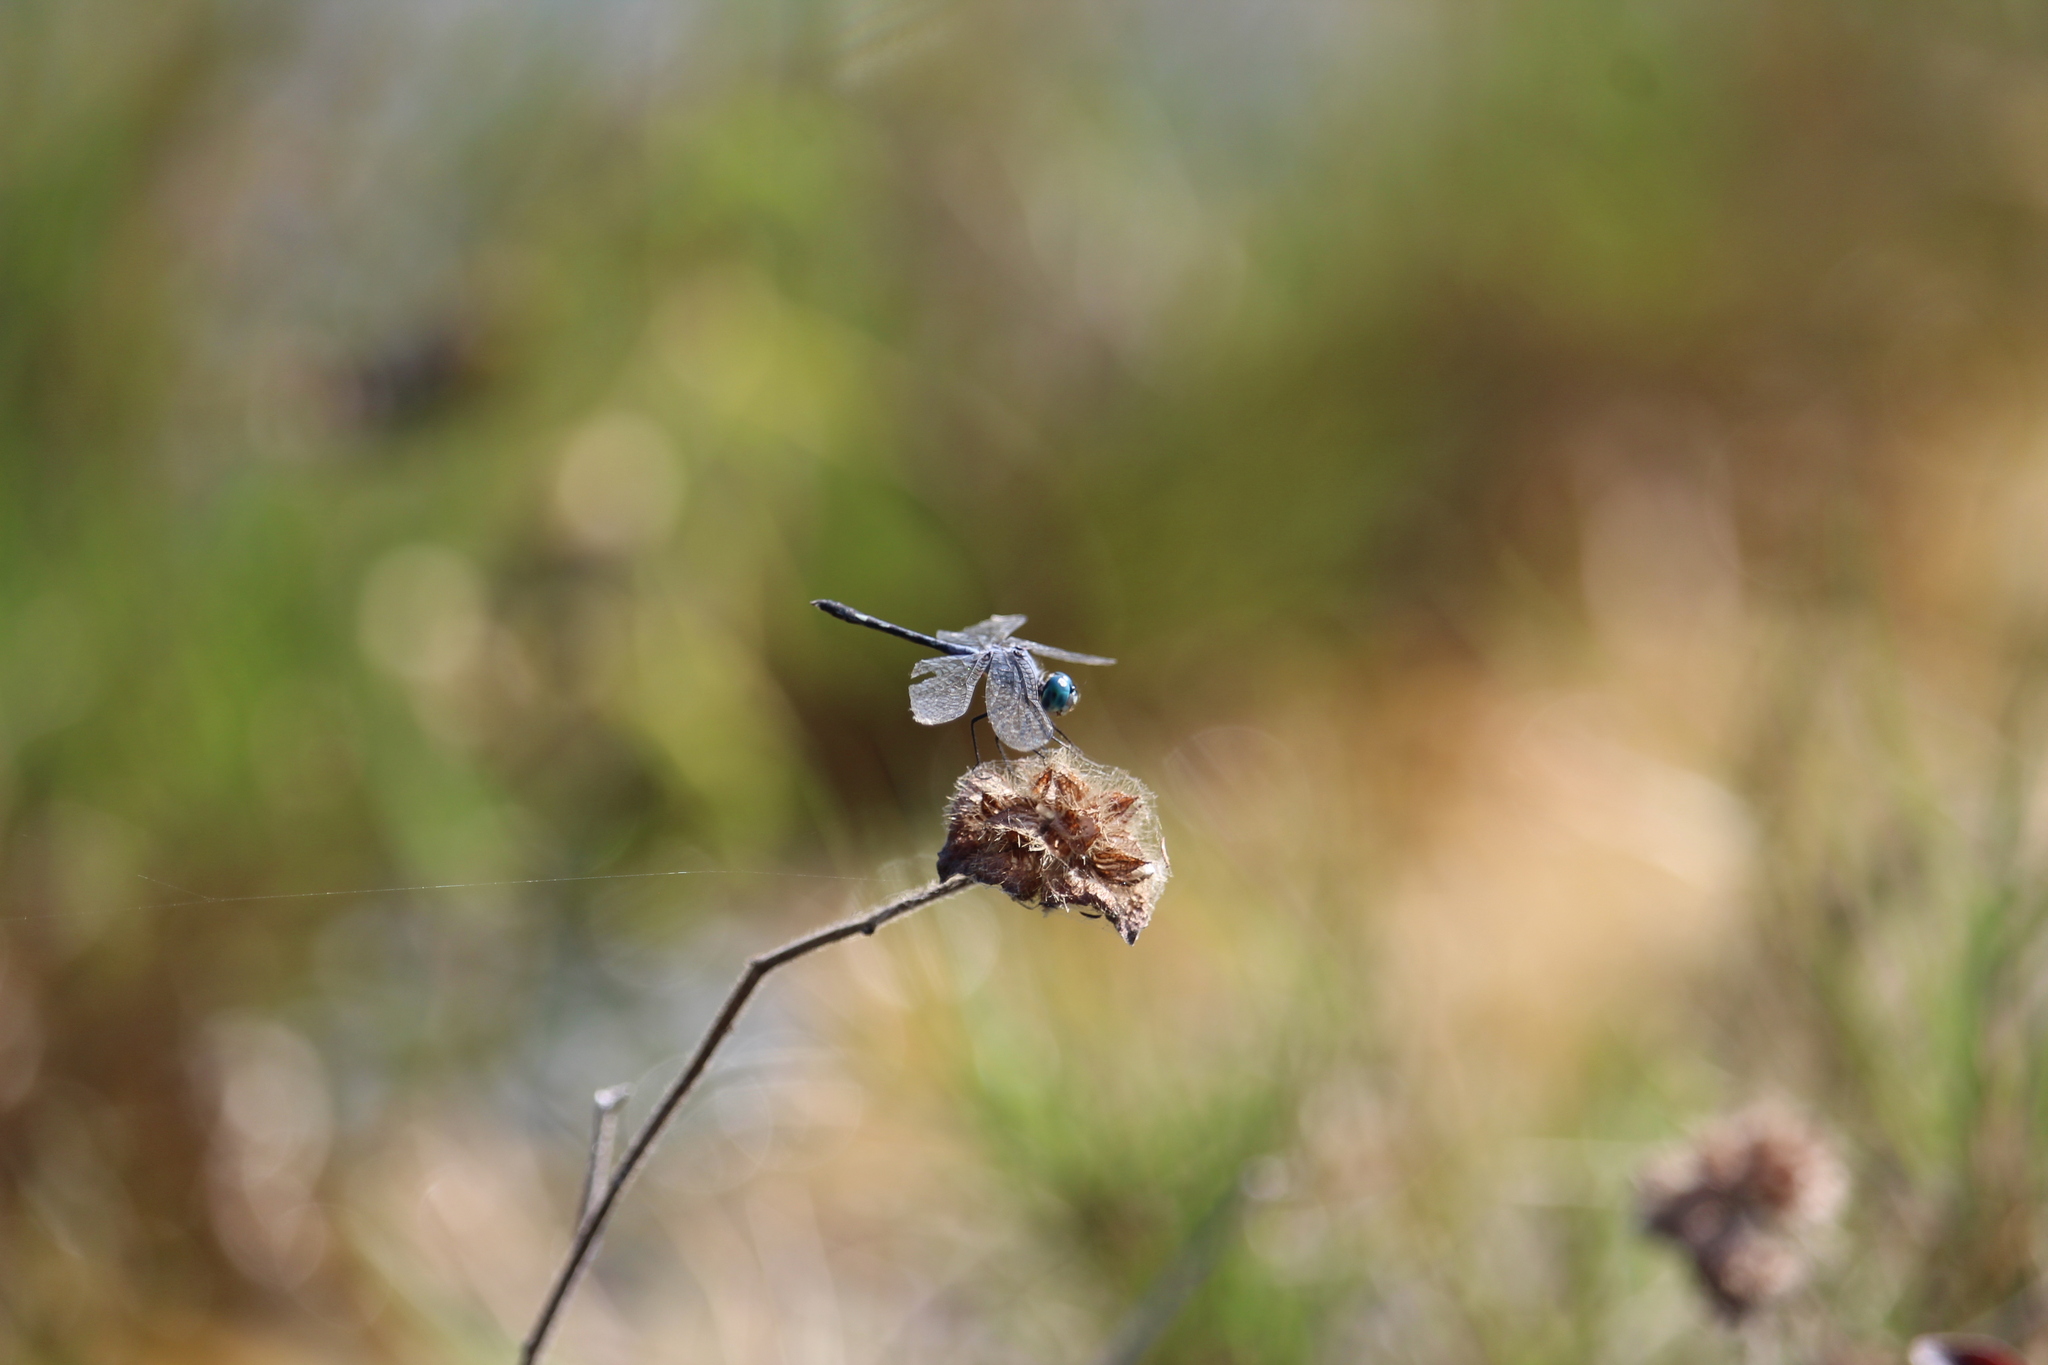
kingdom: Animalia
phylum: Arthropoda
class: Insecta
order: Odonata
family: Libellulidae
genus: Micrathyria
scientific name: Micrathyria debilis
